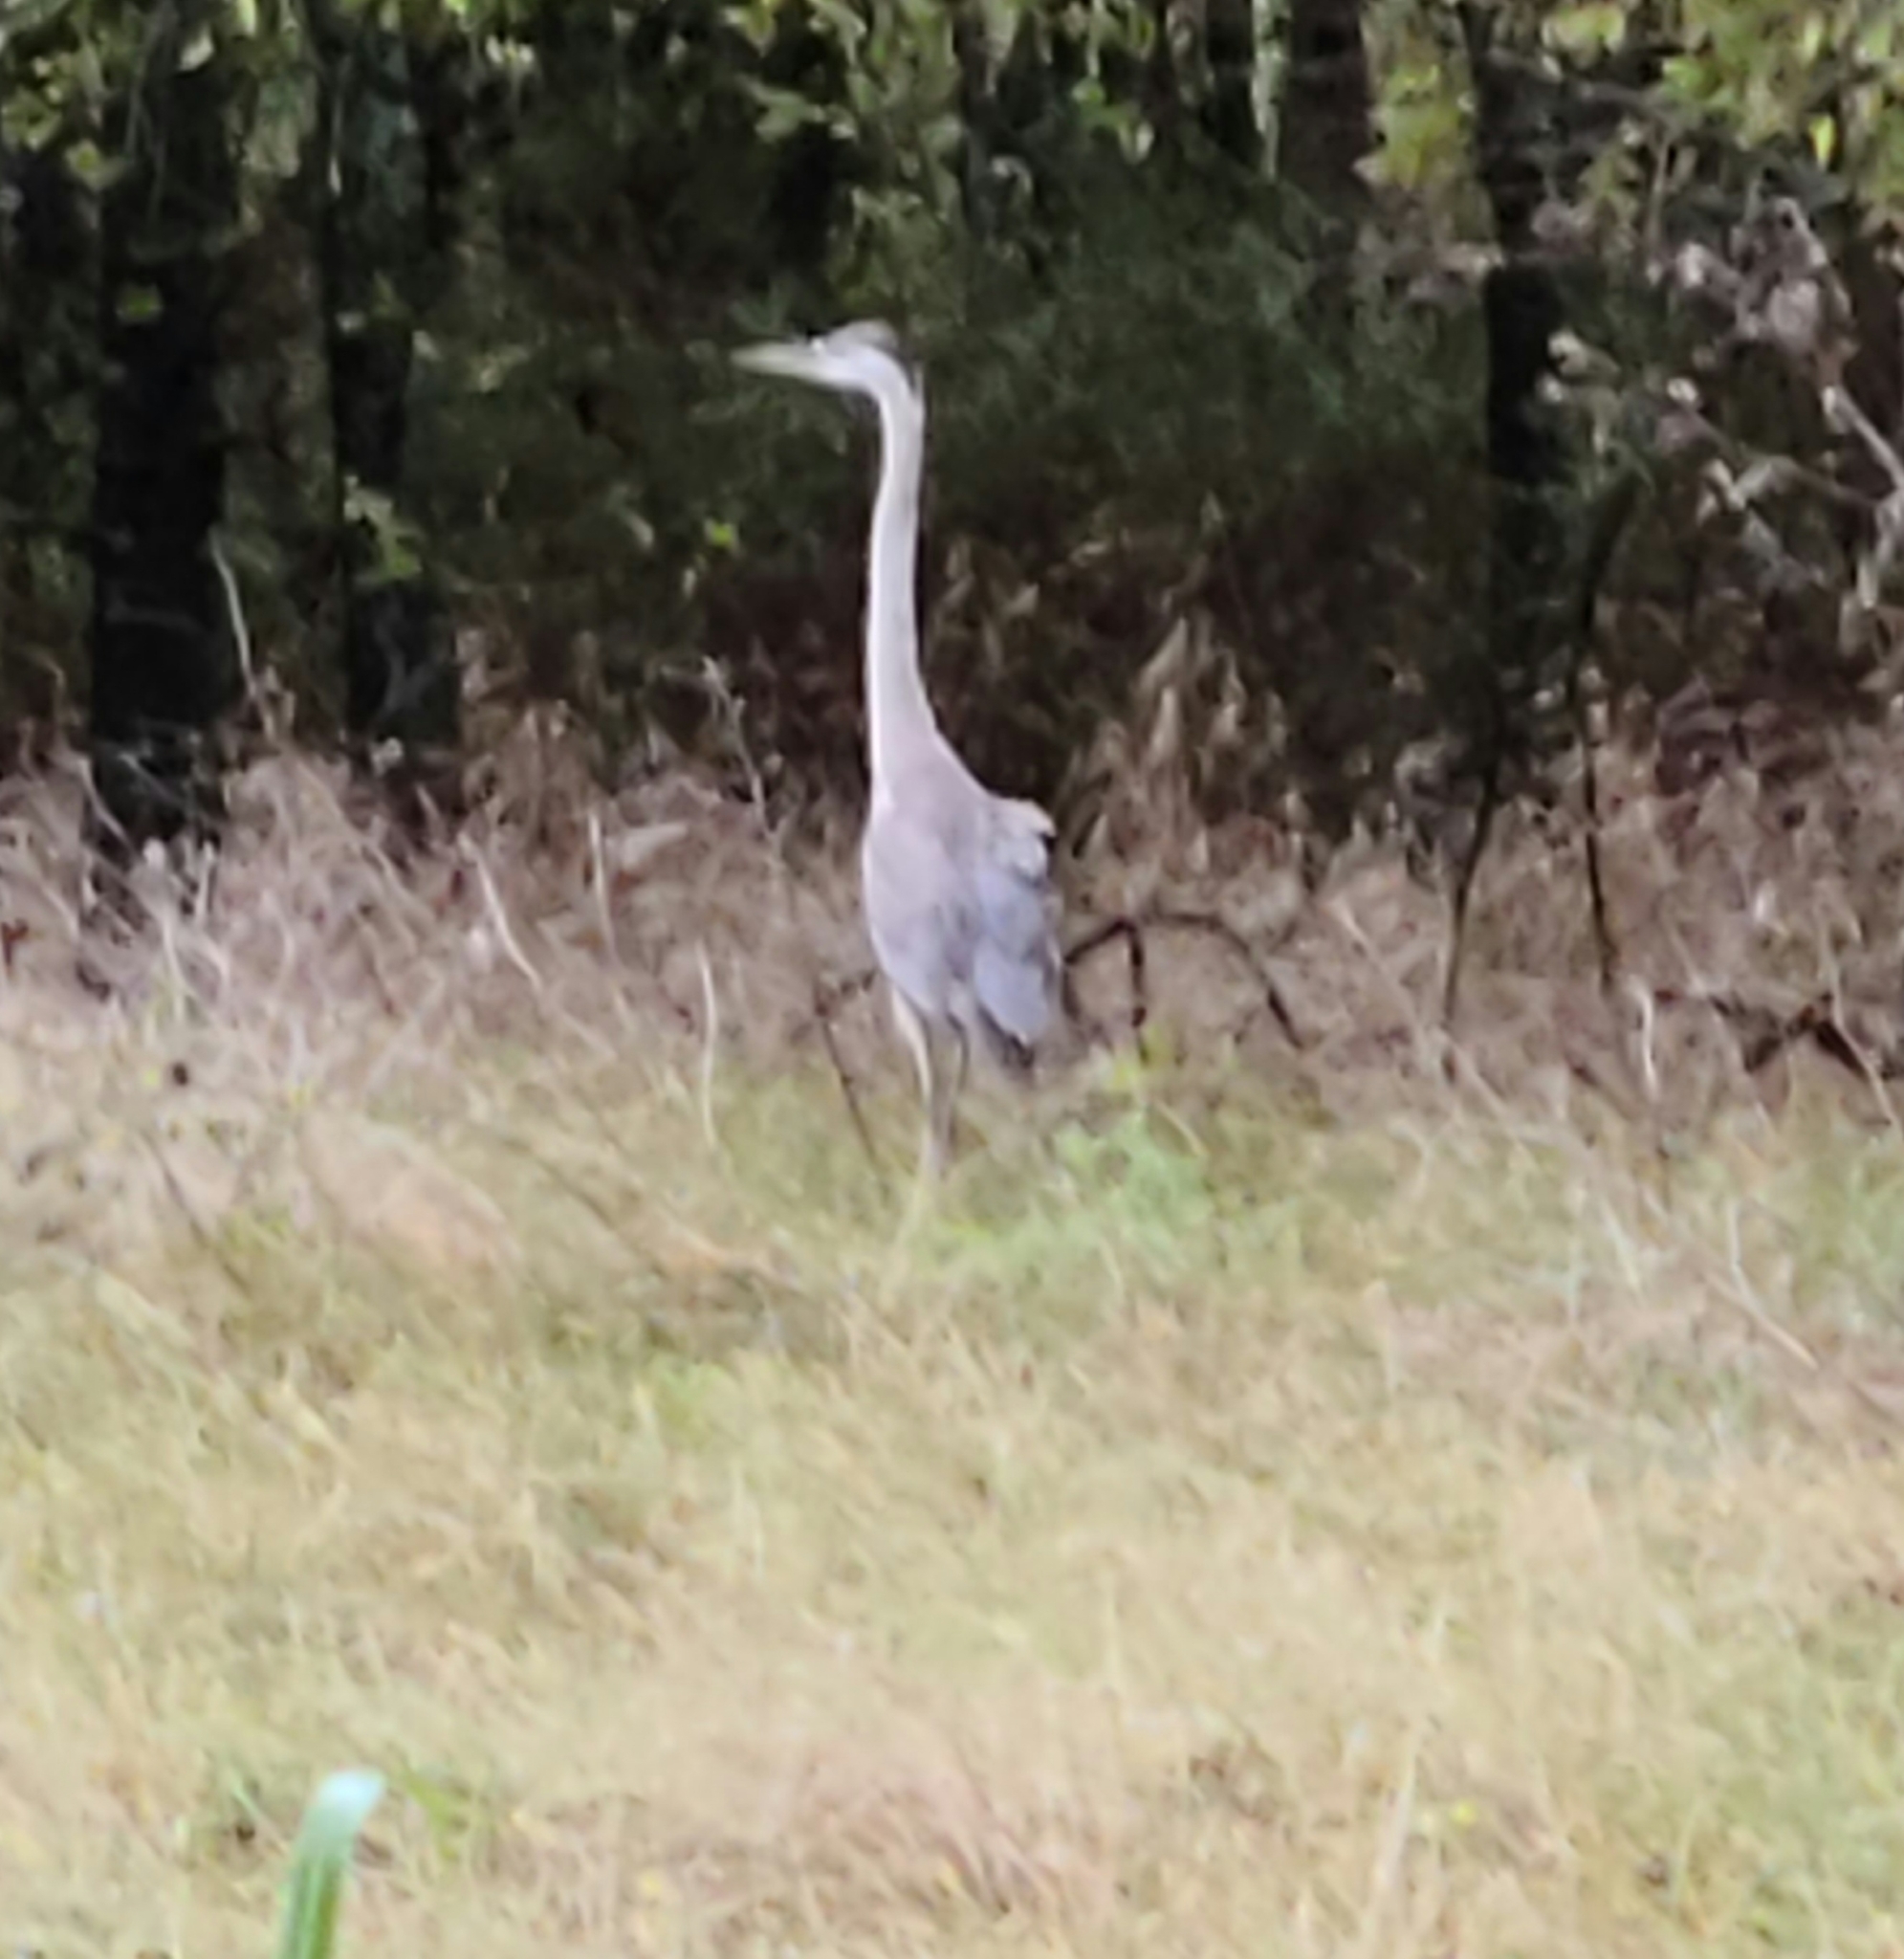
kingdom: Animalia
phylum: Chordata
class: Aves
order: Pelecaniformes
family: Ardeidae
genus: Ardea
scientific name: Ardea herodias
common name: Great blue heron
